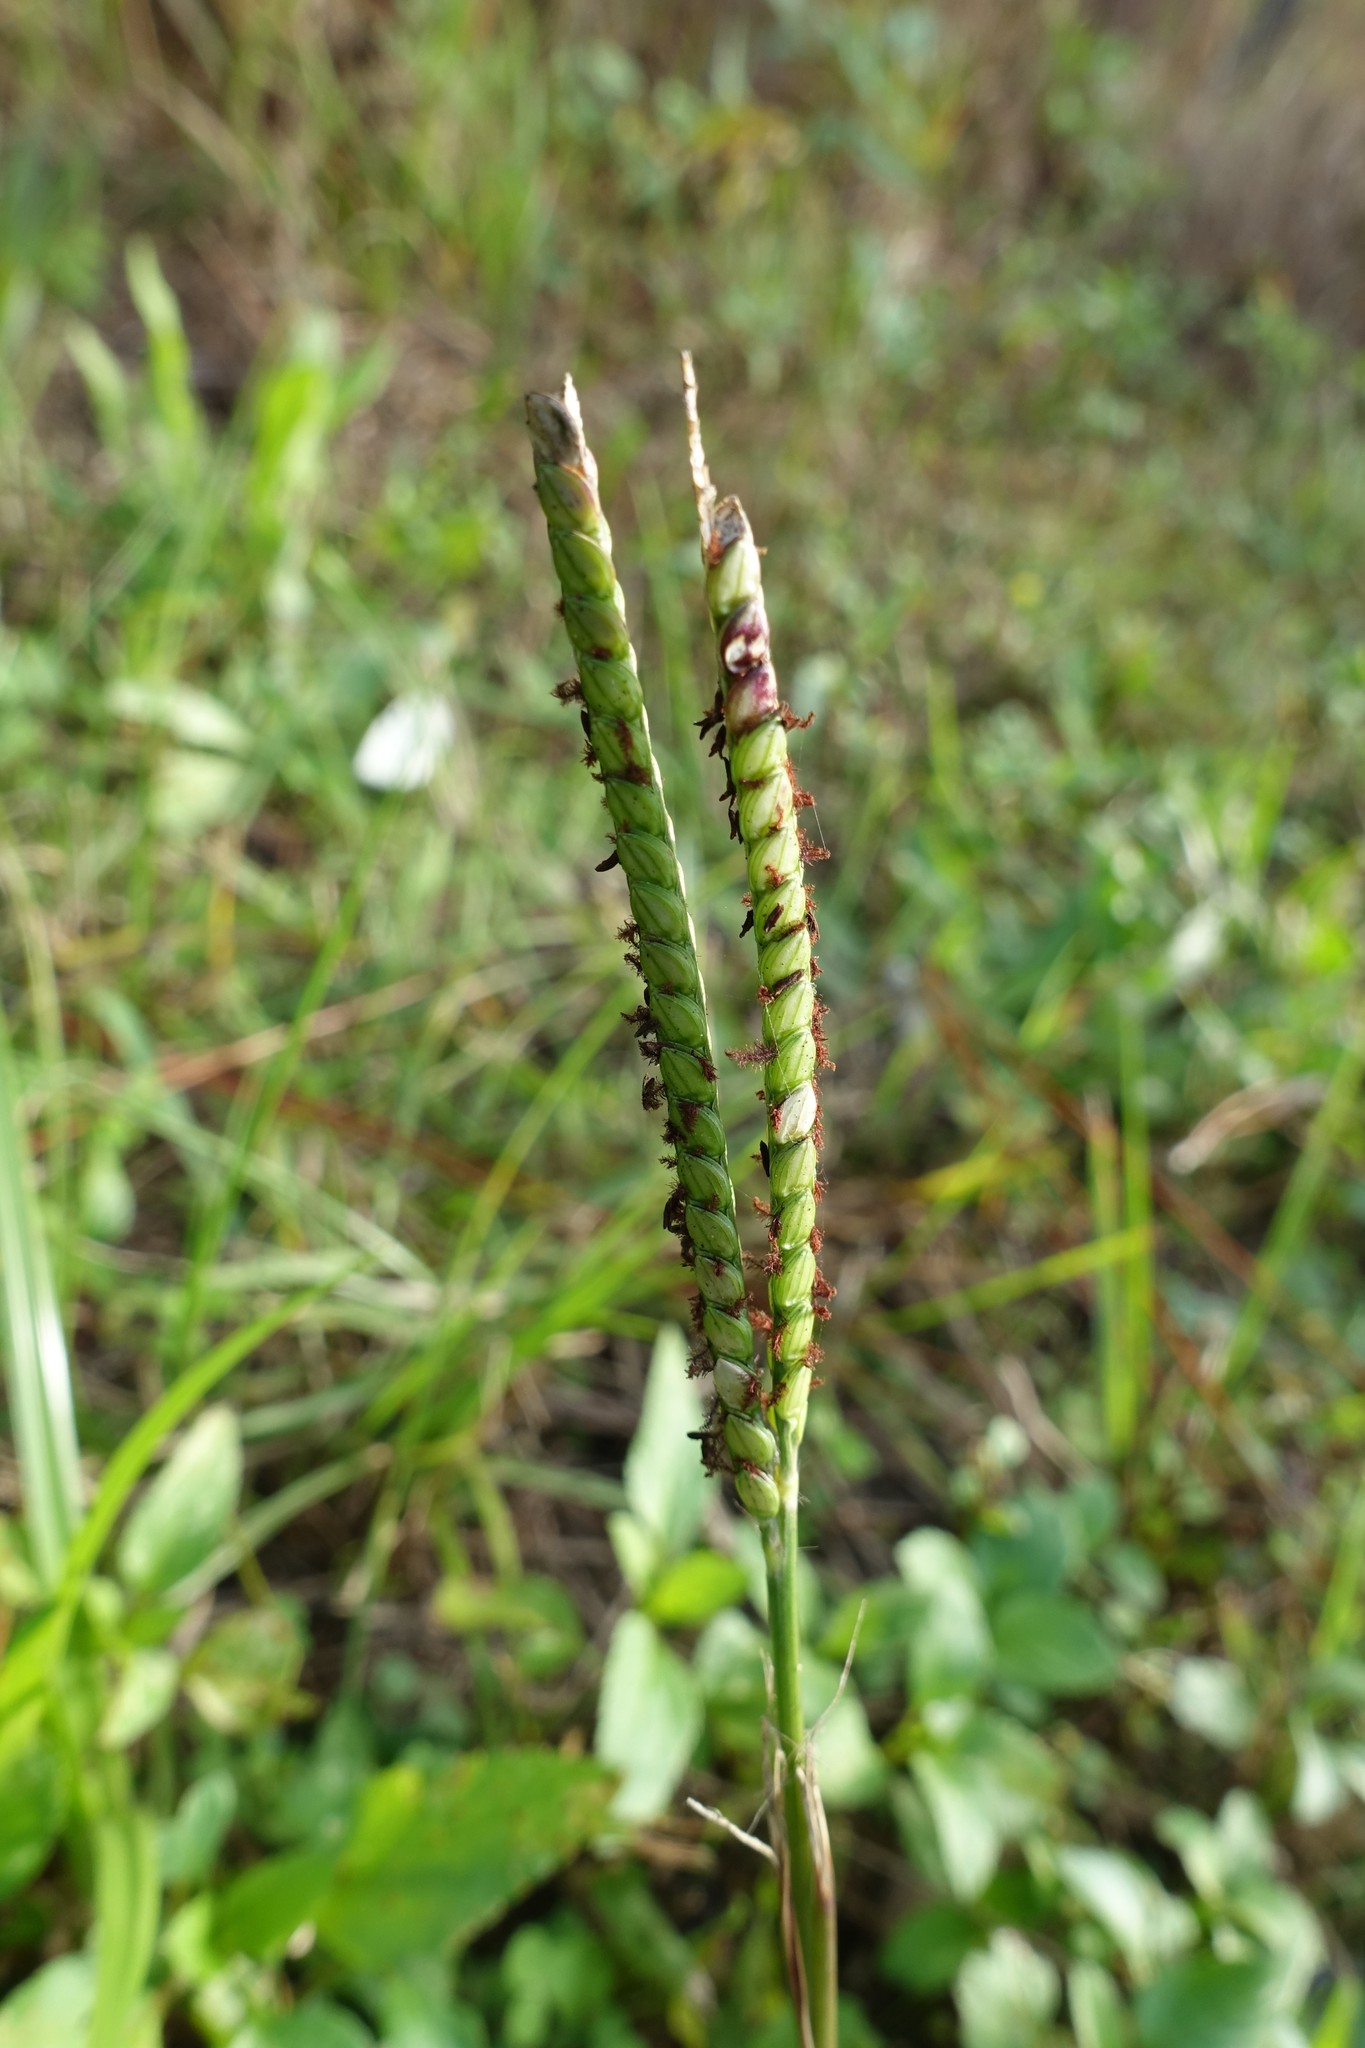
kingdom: Plantae
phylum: Tracheophyta
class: Liliopsida
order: Poales
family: Poaceae
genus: Paspalum
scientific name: Paspalum notatum
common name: Bahiagrass
